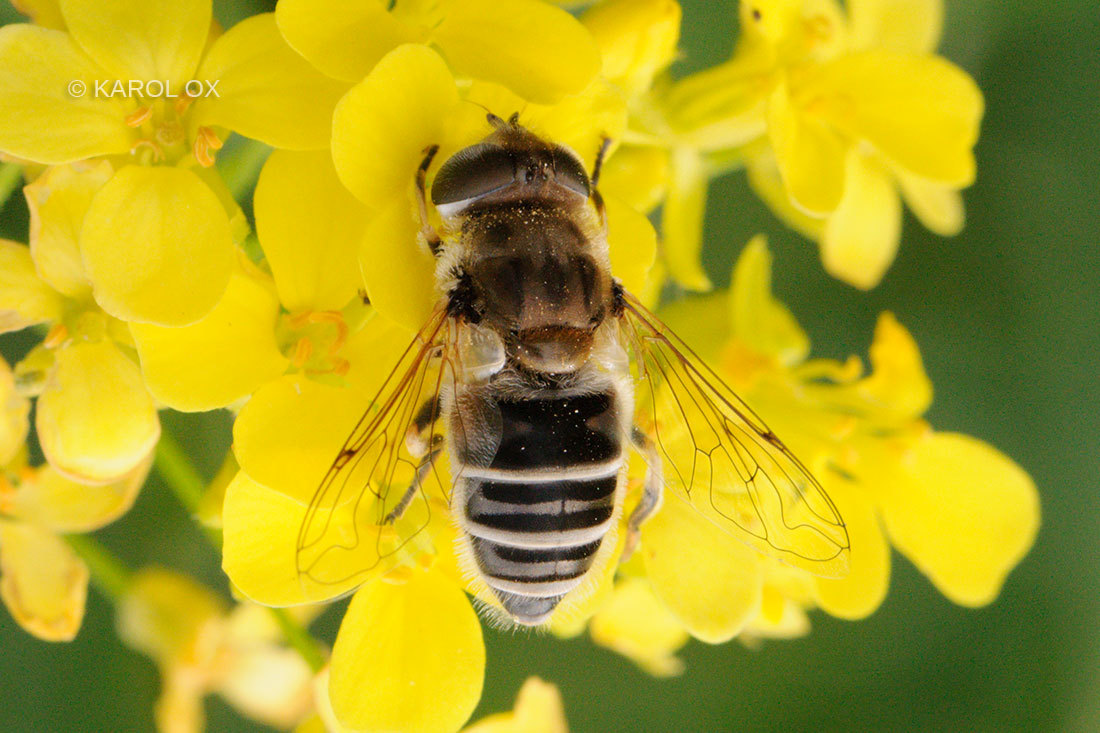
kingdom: Animalia
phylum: Arthropoda
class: Insecta
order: Diptera
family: Syrphidae
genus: Eristalis
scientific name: Eristalis arbustorum
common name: Hover fly
